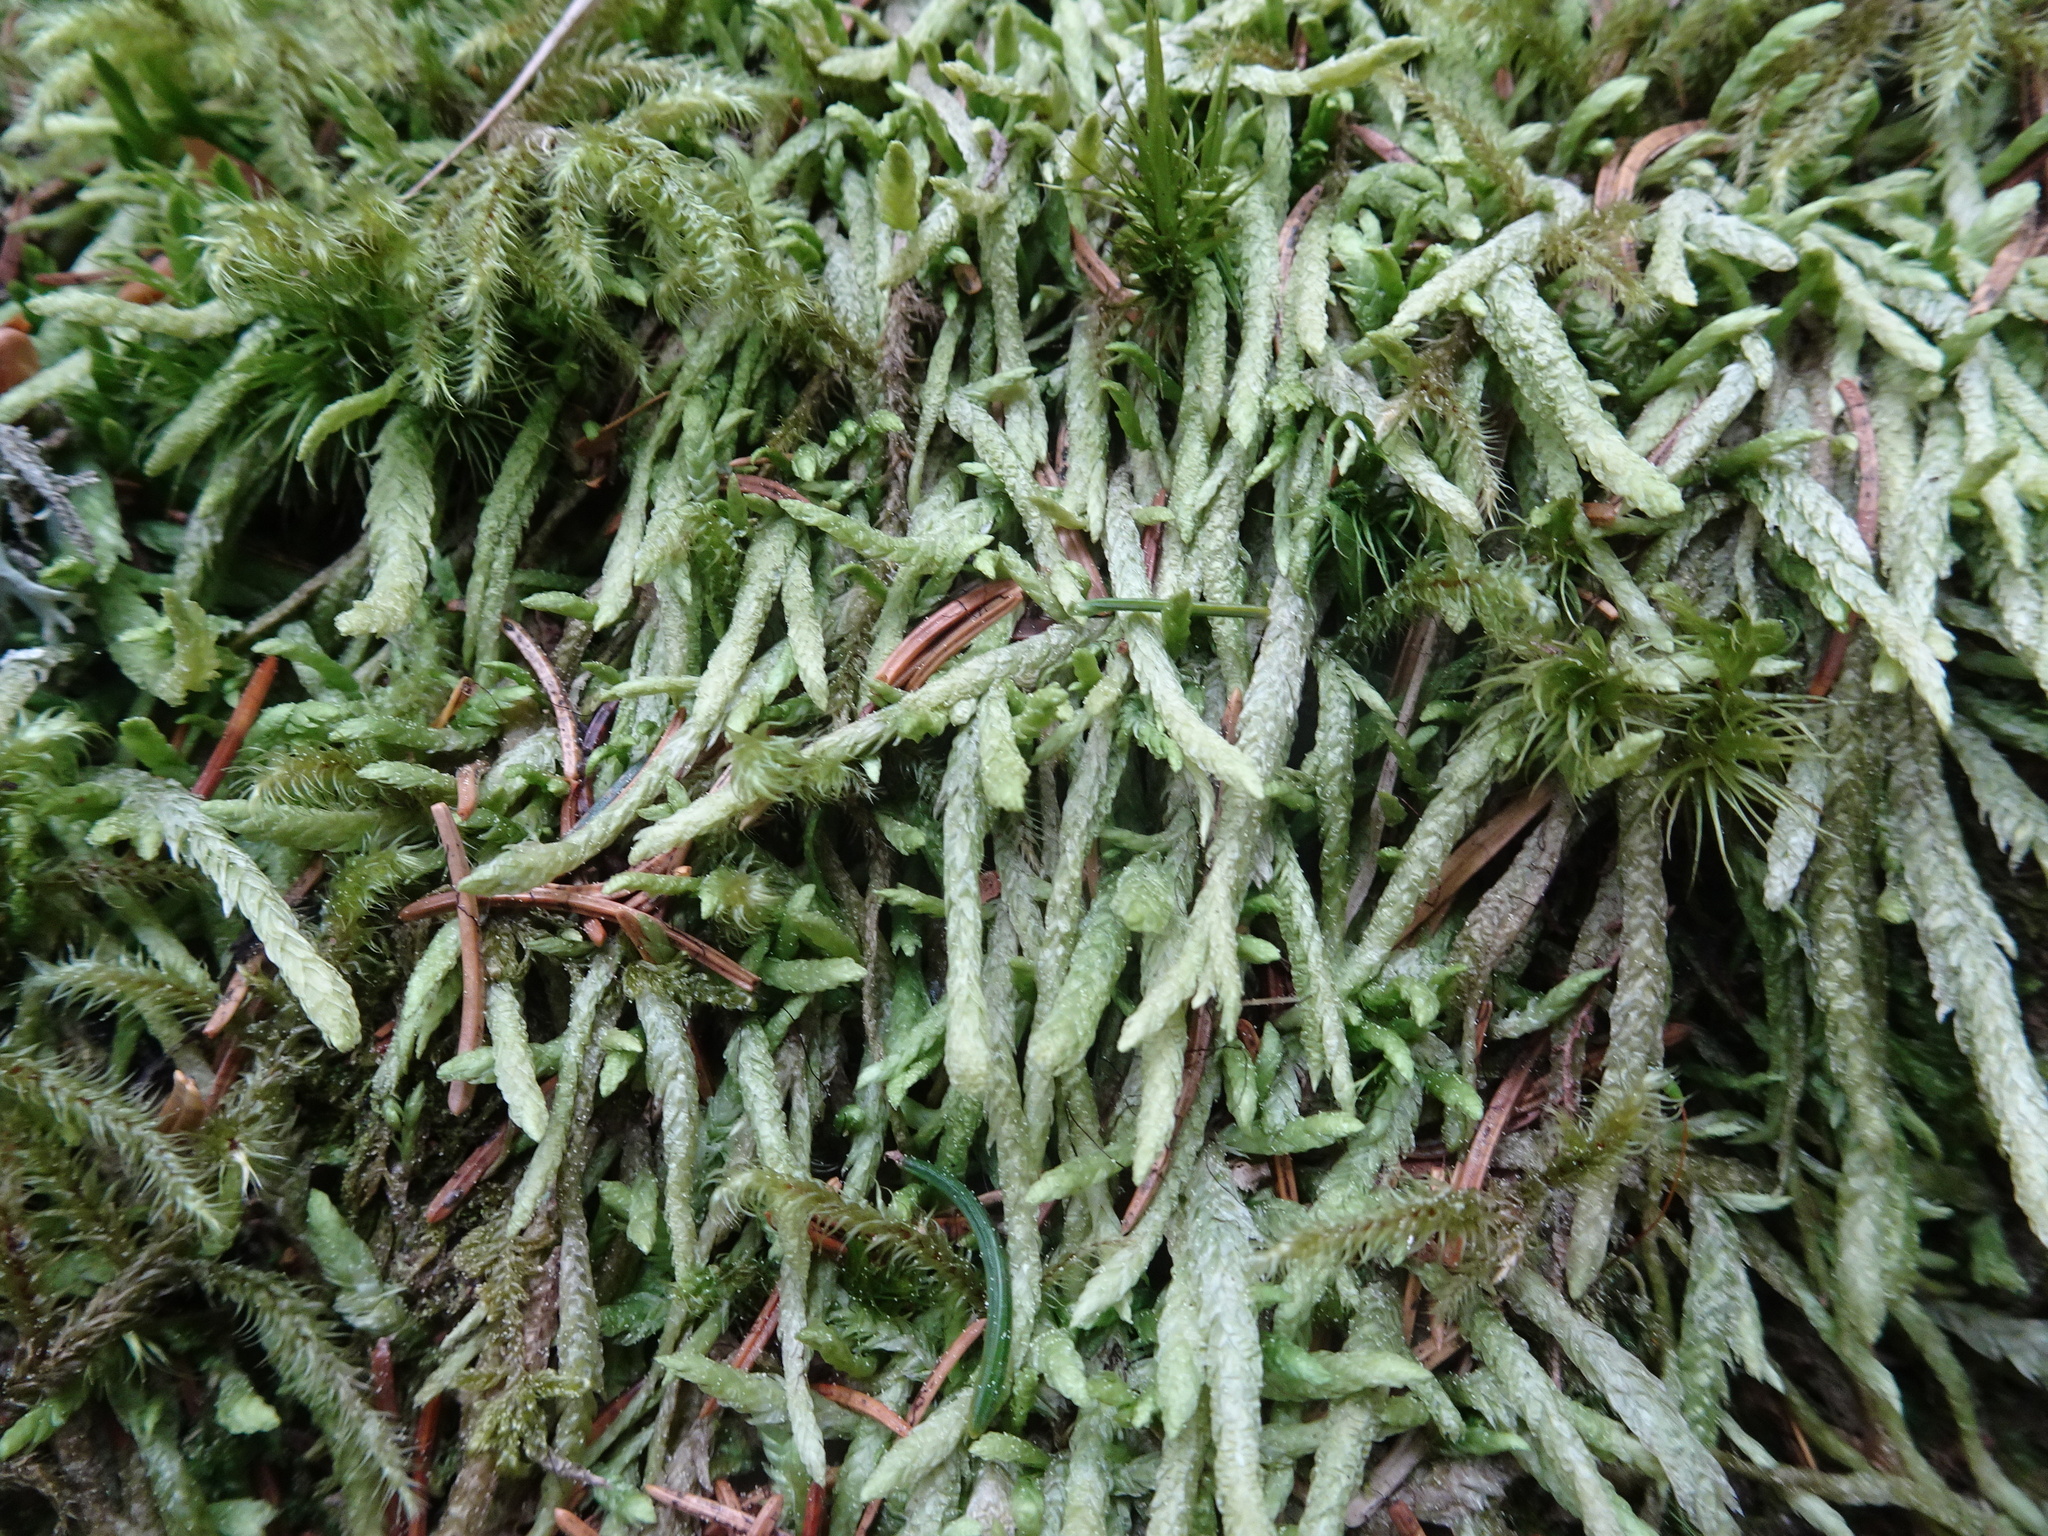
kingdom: Plantae
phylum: Bryophyta
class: Bryopsida
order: Hypnales
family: Plagiotheciaceae
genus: Plagiothecium
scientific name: Plagiothecium undulatum
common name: Waved silk-moss
